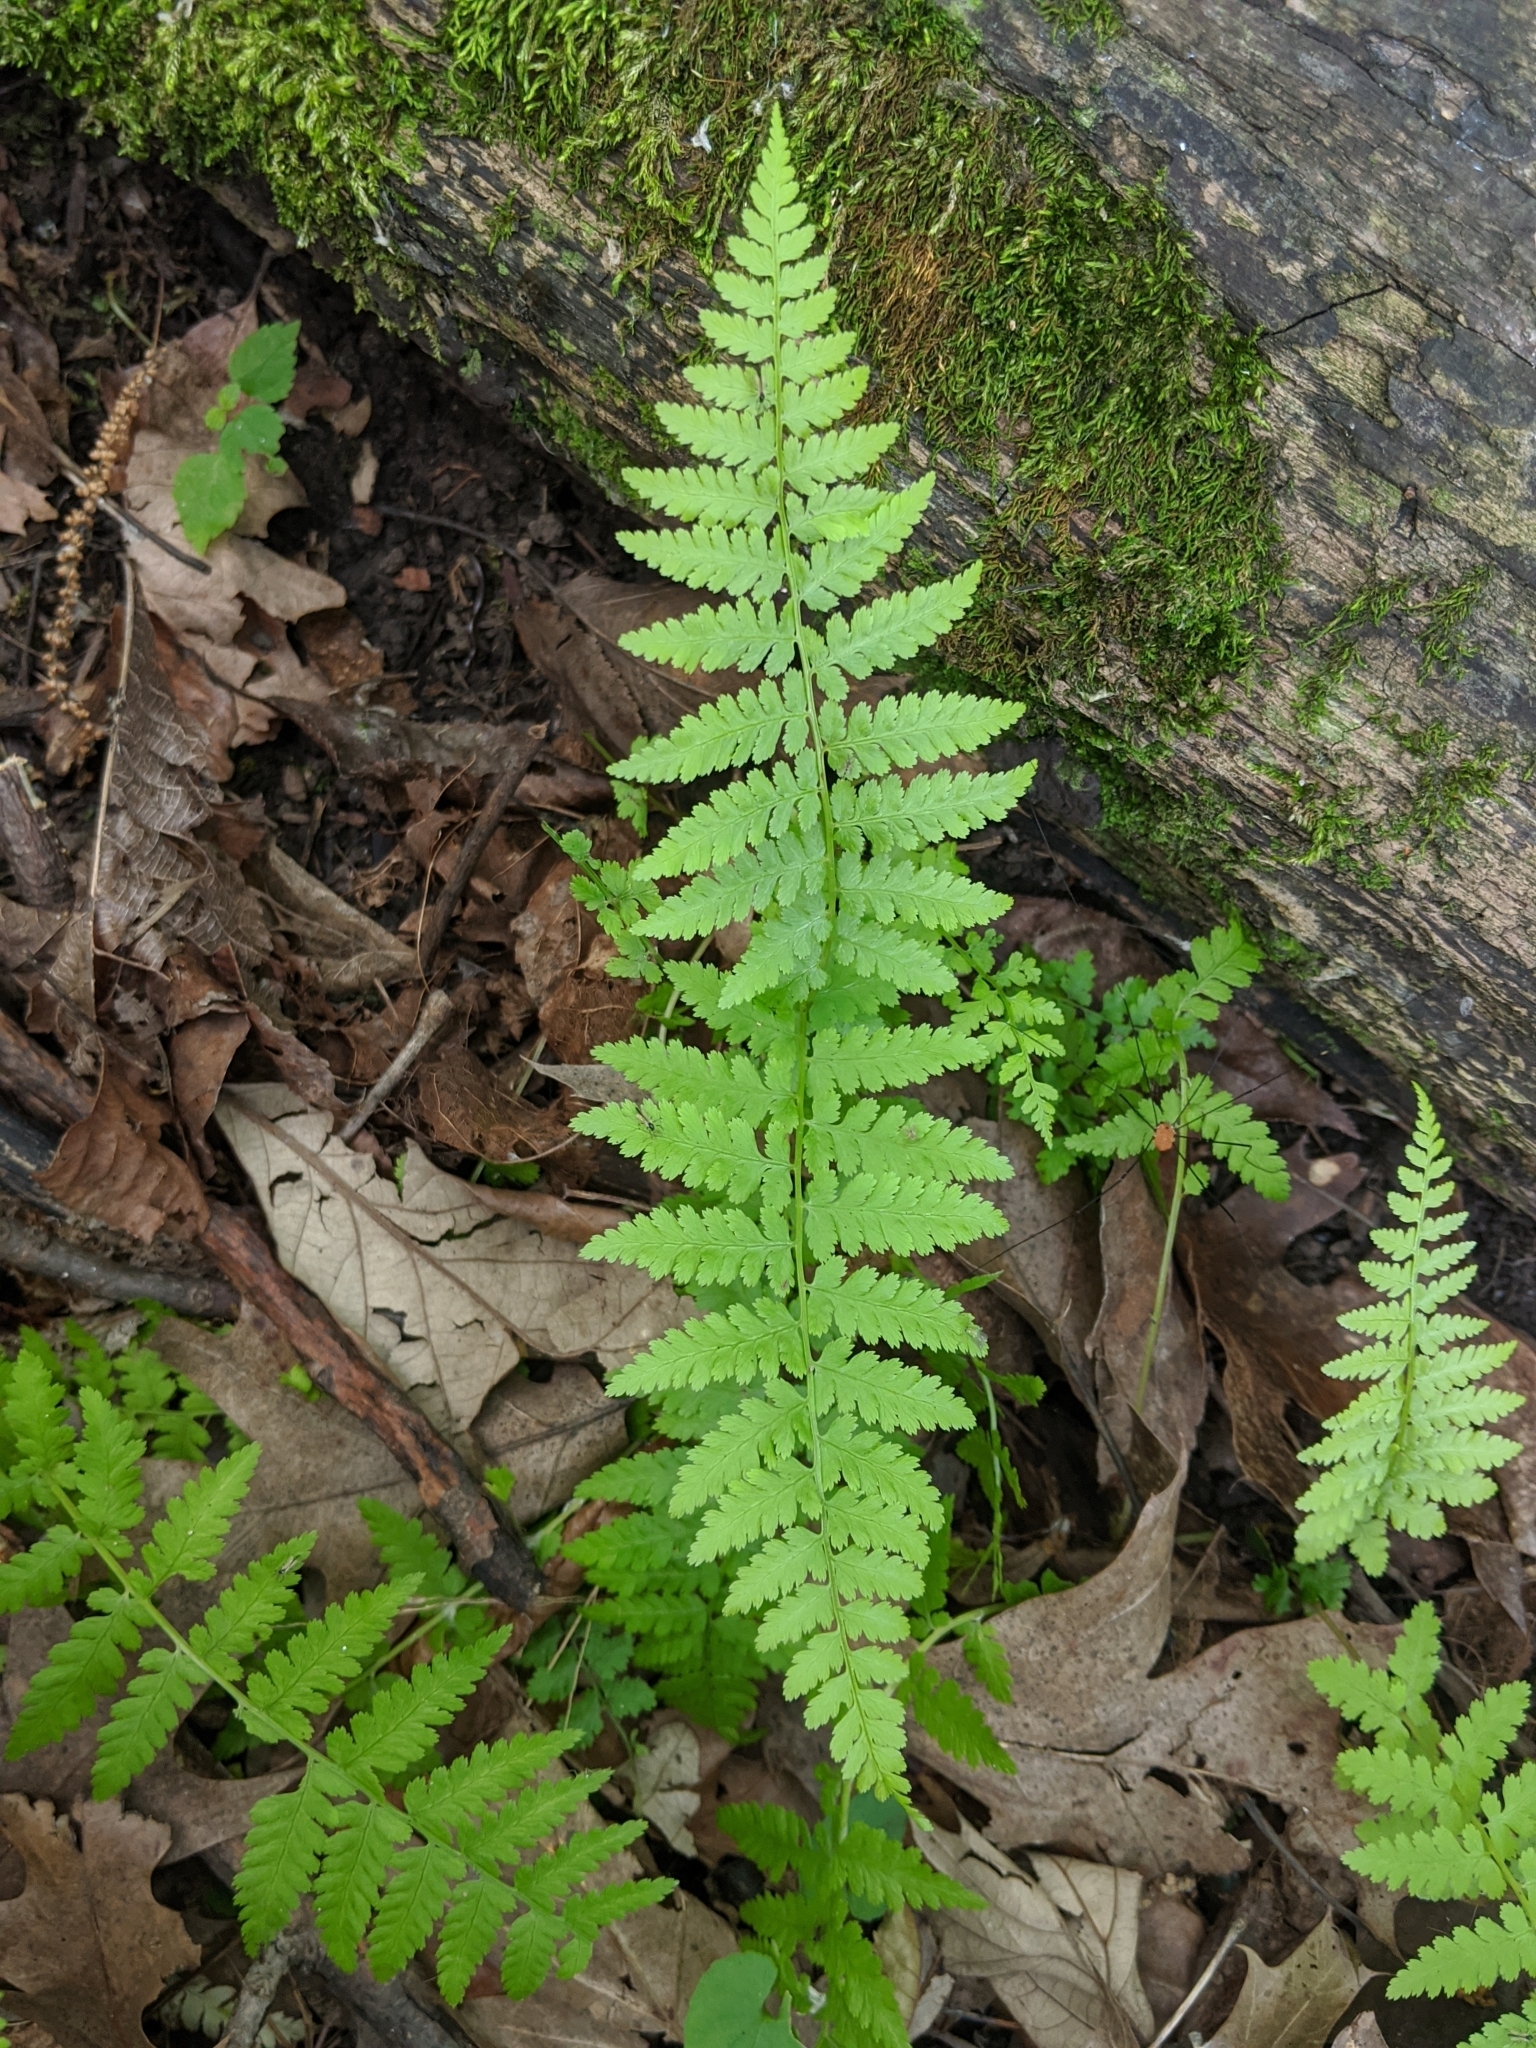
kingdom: Plantae
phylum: Tracheophyta
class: Polypodiopsida
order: Polypodiales
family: Dryopteridaceae
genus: Dryopteris
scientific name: Dryopteris
